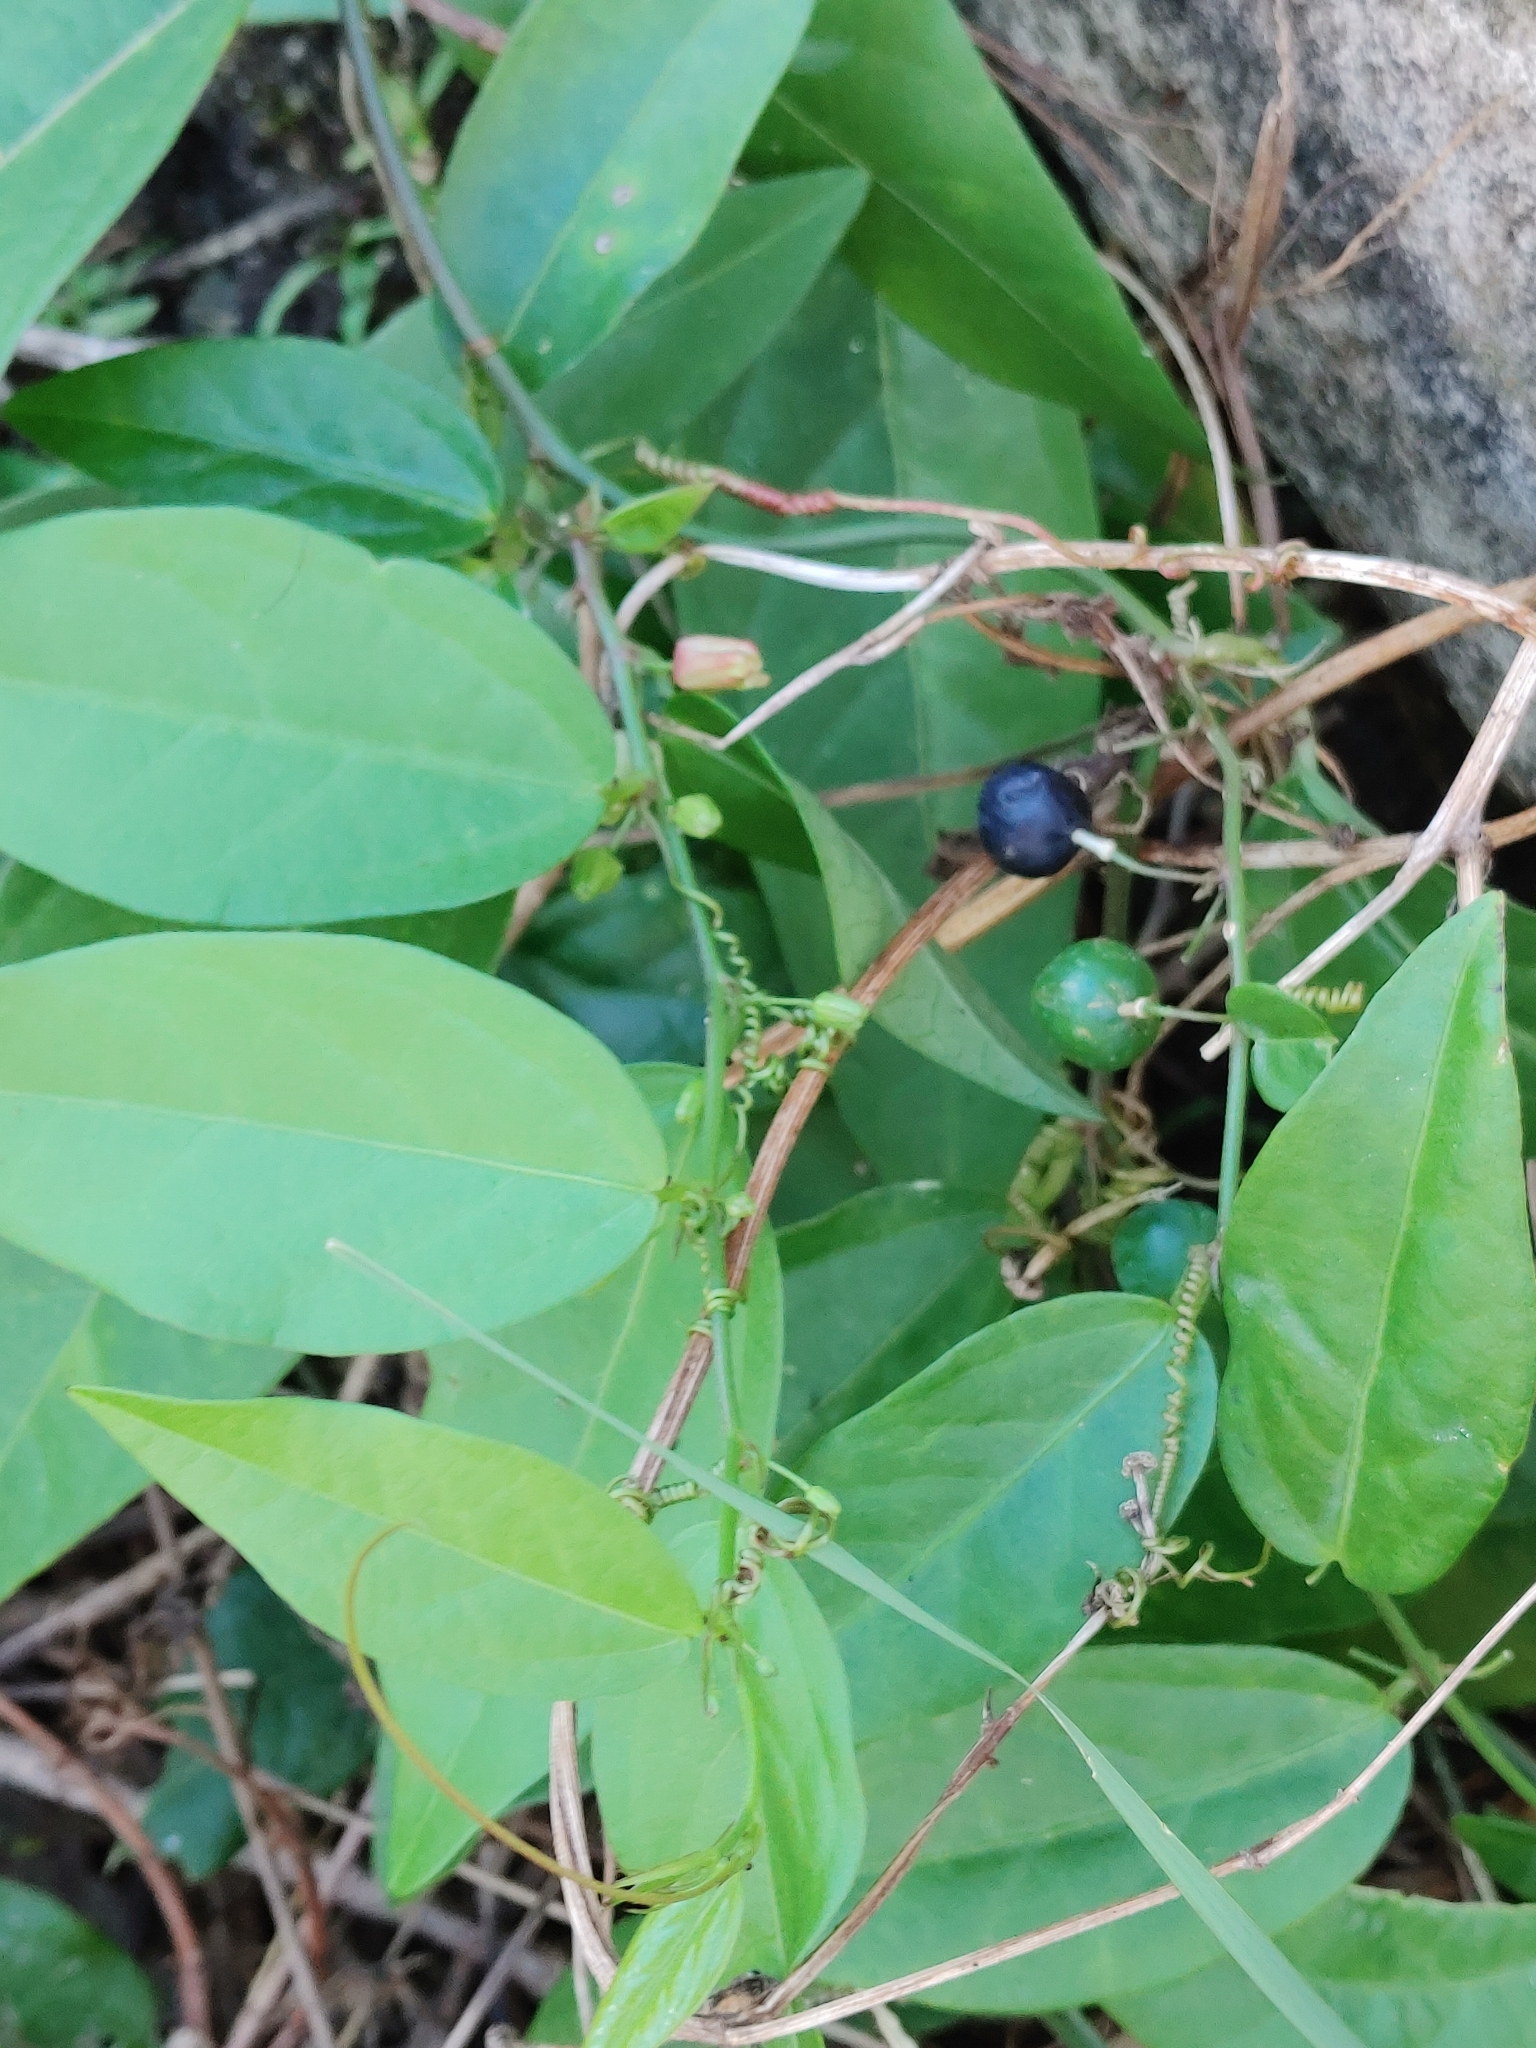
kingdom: Plantae
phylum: Tracheophyta
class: Magnoliopsida
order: Malpighiales
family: Passifloraceae
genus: Passiflora
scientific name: Passiflora pallida
